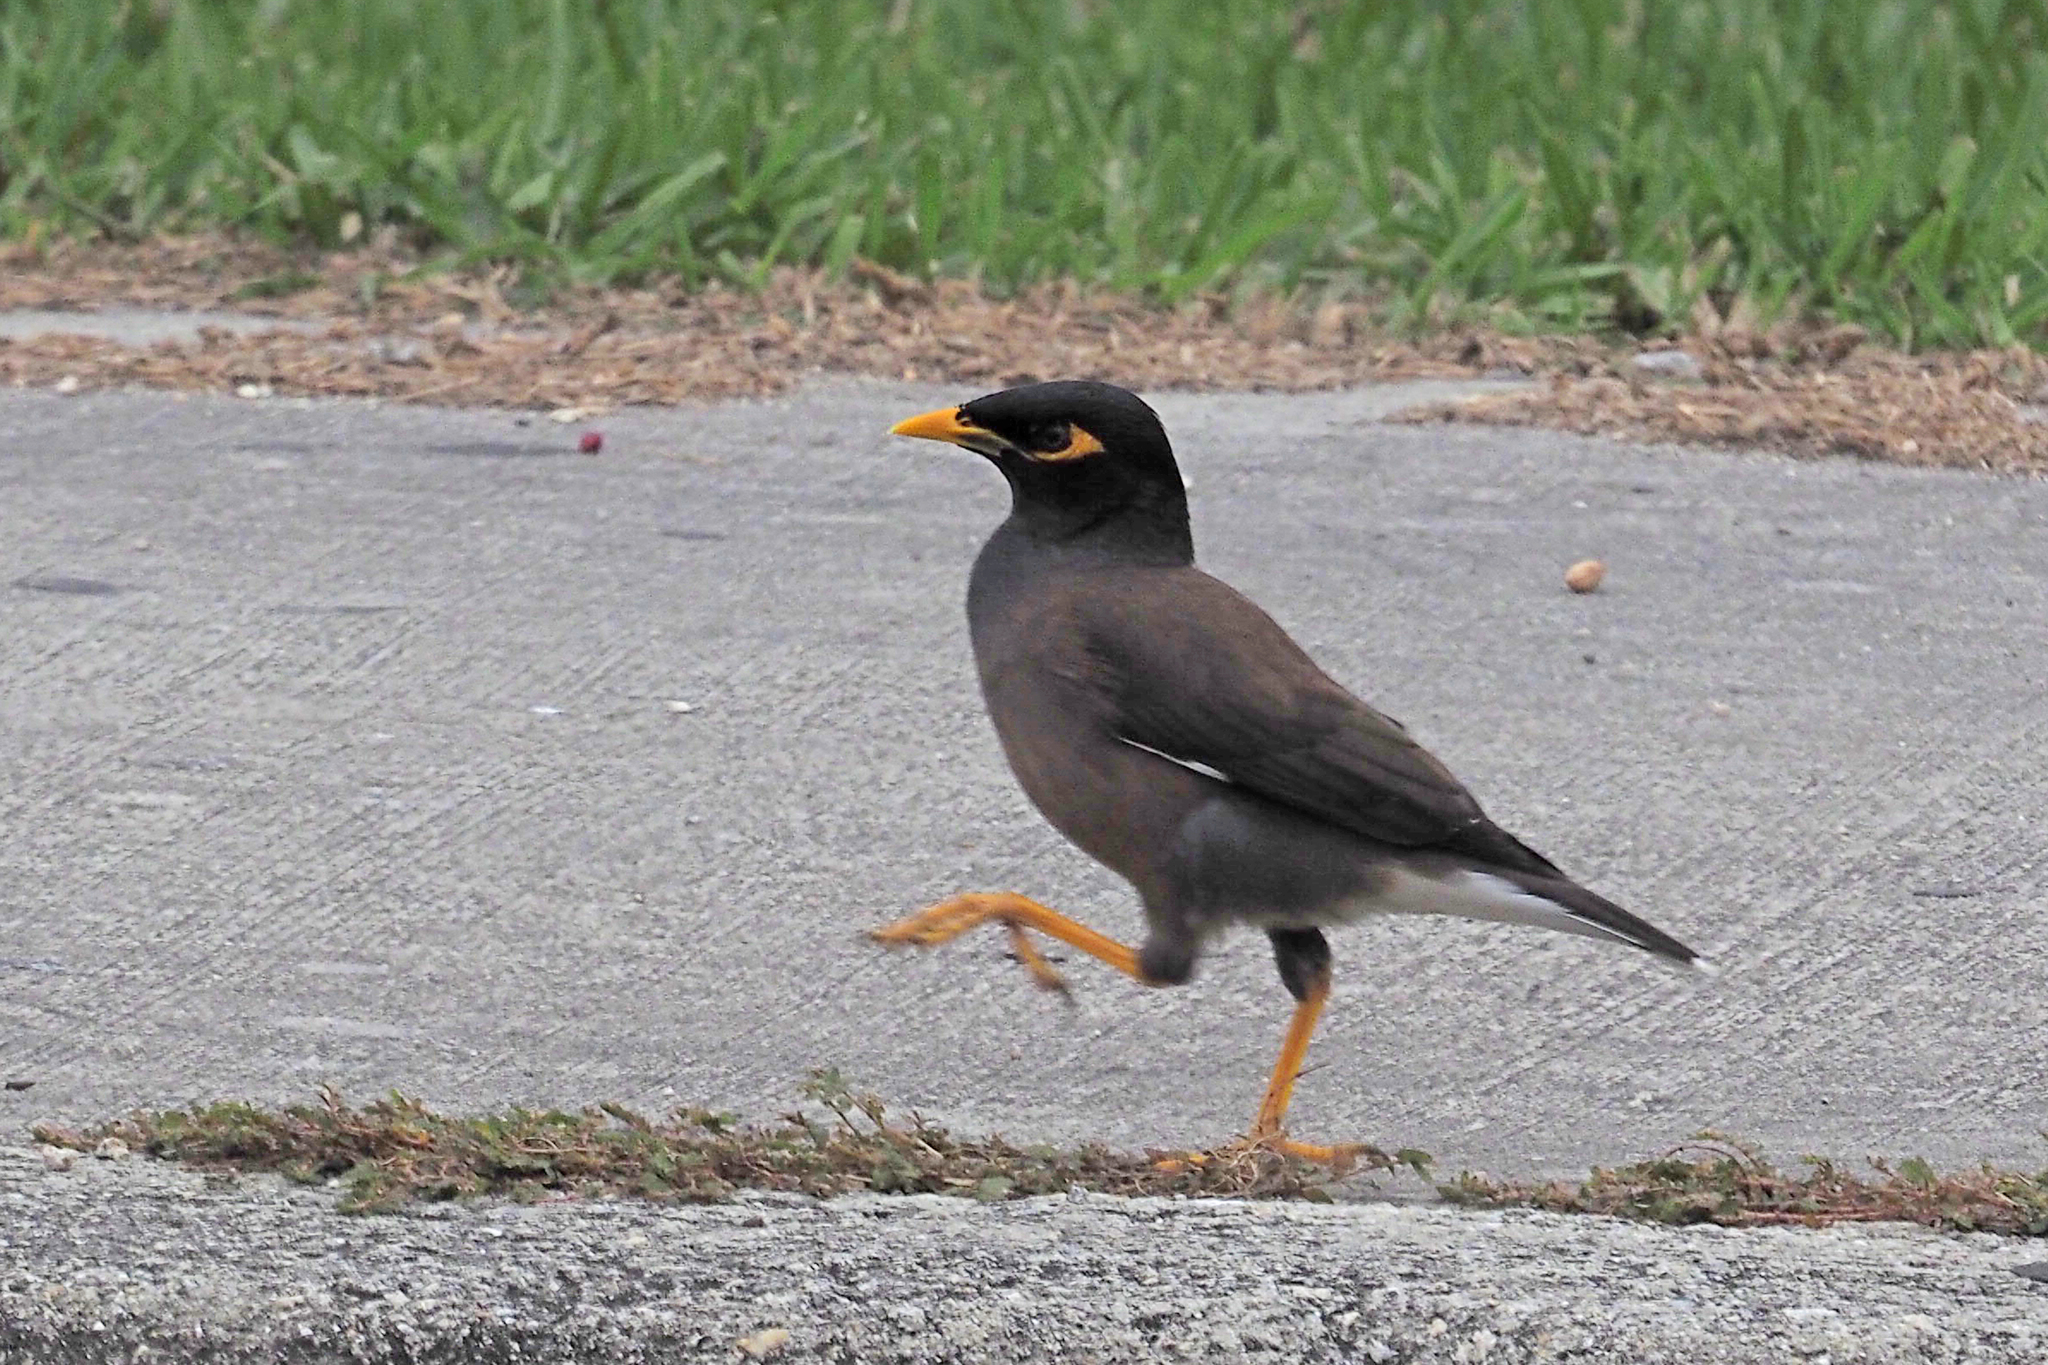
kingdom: Animalia
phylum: Chordata
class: Aves
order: Passeriformes
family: Sturnidae
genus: Acridotheres
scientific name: Acridotheres tristis
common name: Common myna
